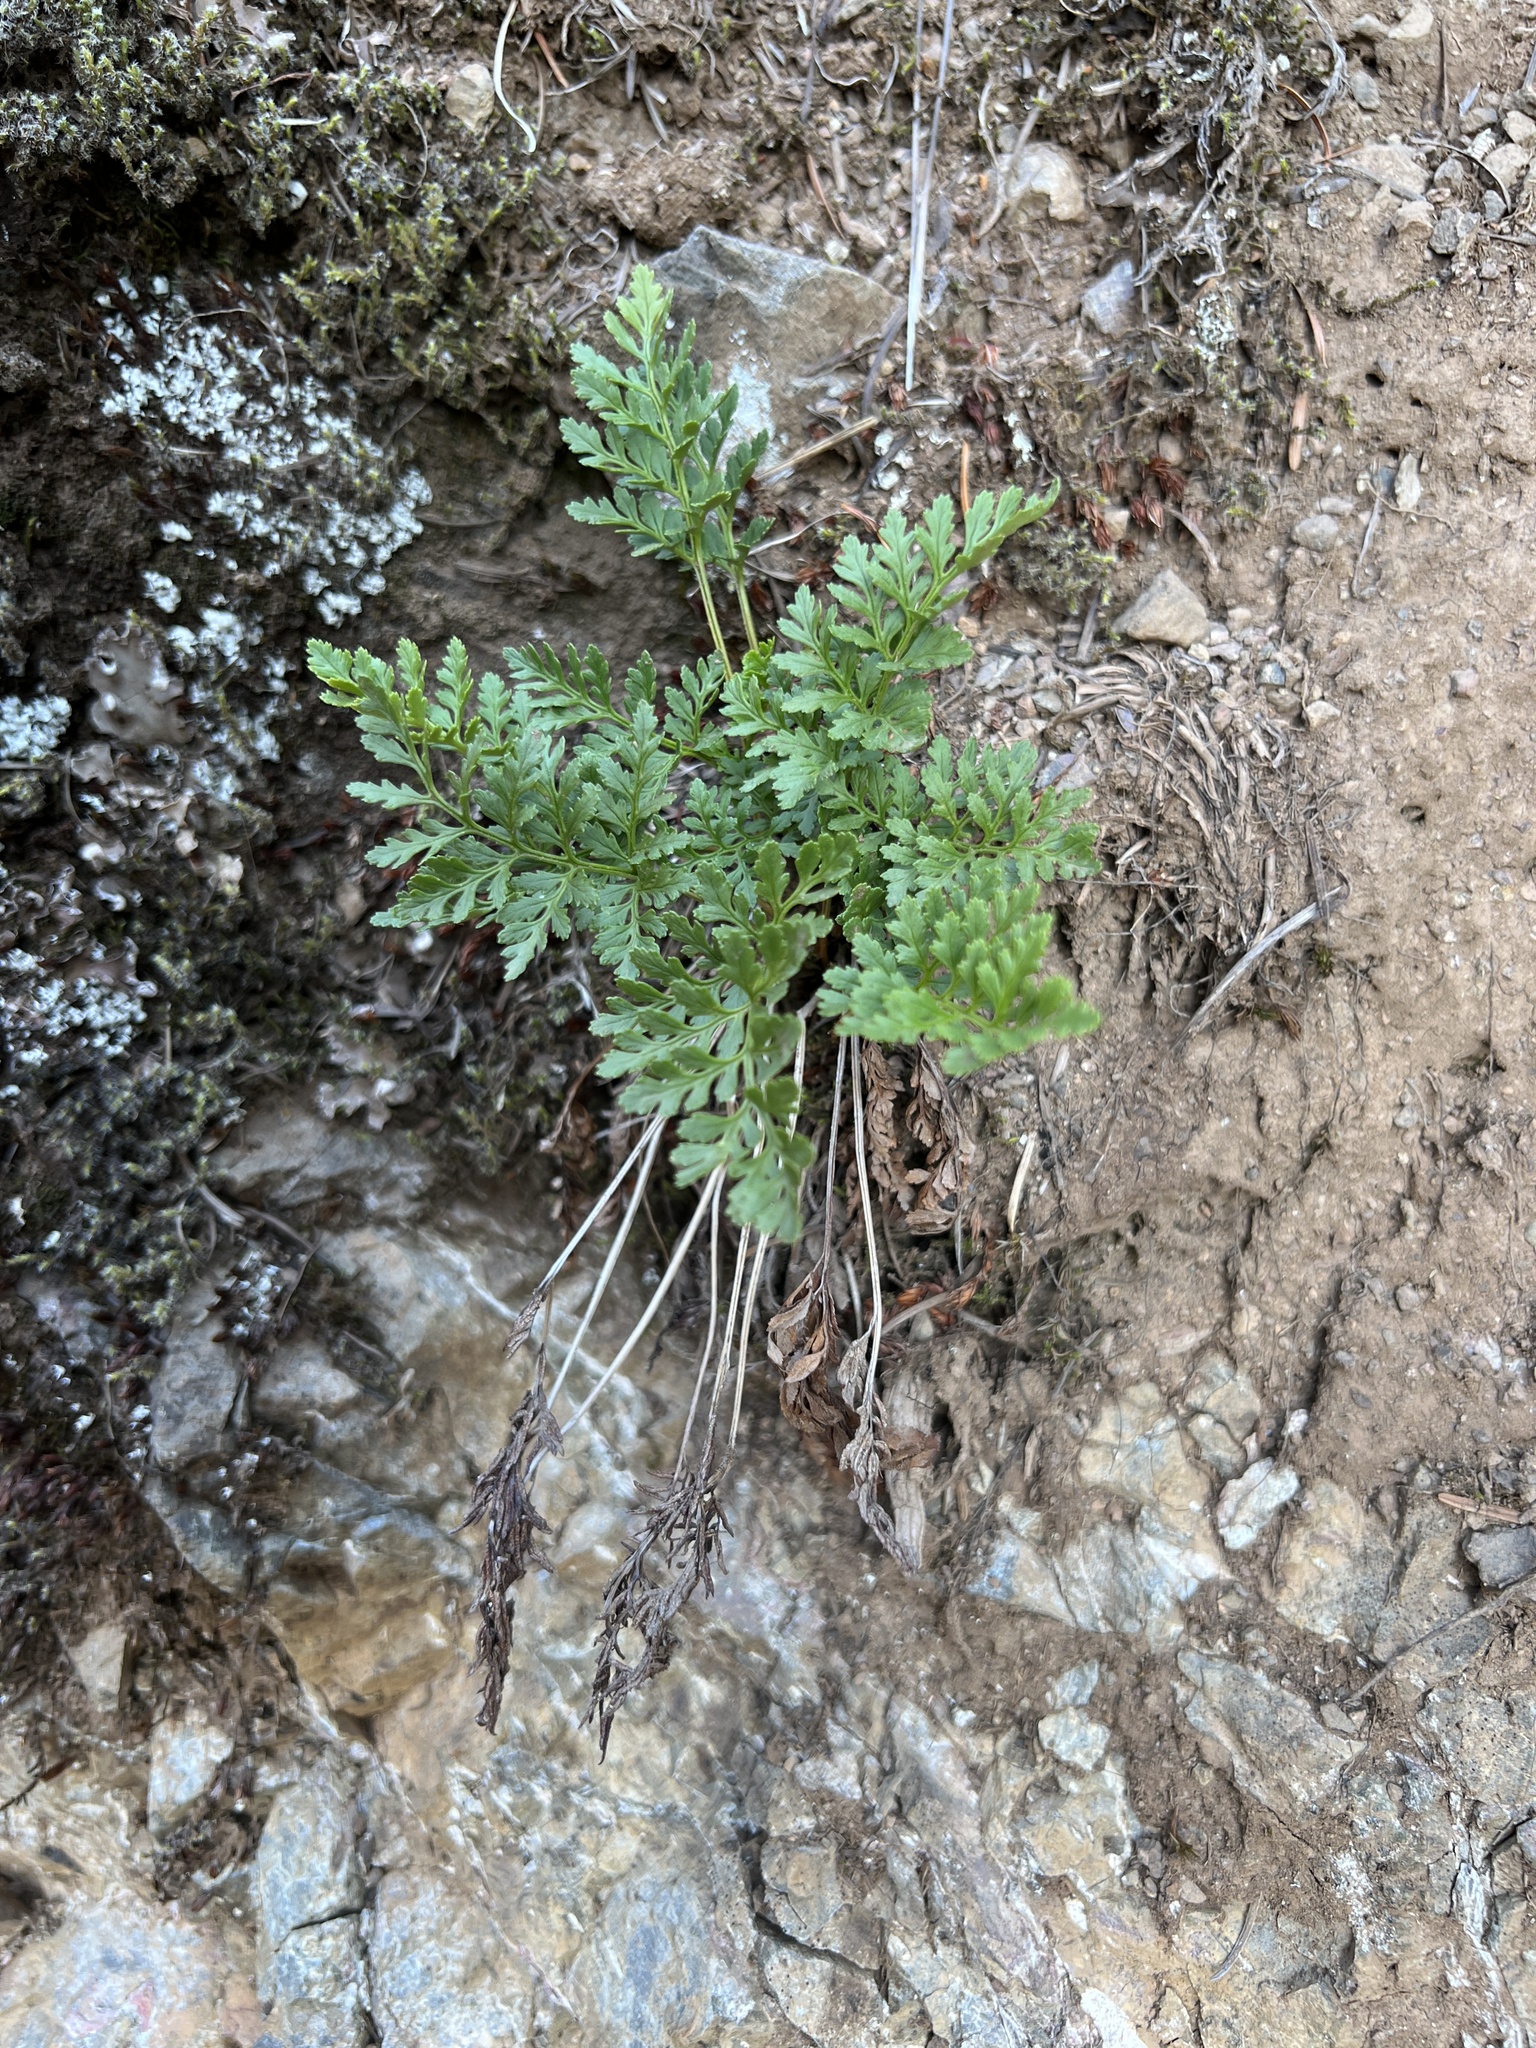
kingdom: Plantae
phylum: Tracheophyta
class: Polypodiopsida
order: Polypodiales
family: Pteridaceae
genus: Cryptogramma
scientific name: Cryptogramma acrostichoides
